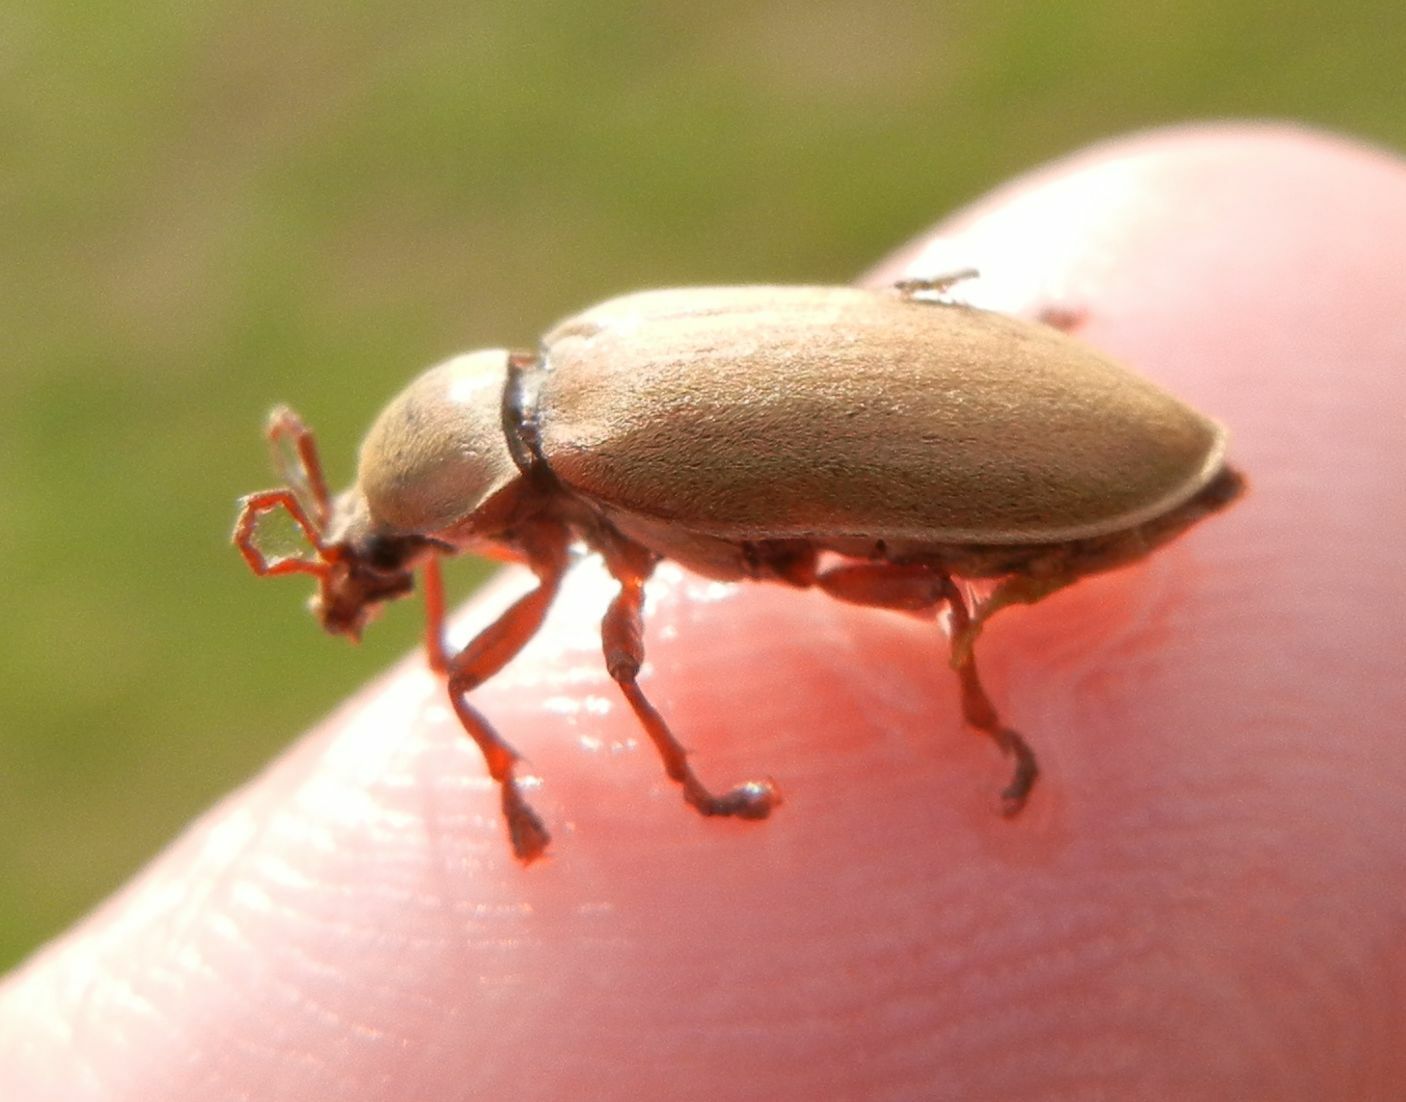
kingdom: Animalia
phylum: Arthropoda
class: Insecta
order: Coleoptera
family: Dascillidae
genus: Dascillus
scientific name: Dascillus cervinus
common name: Orchid beetle
